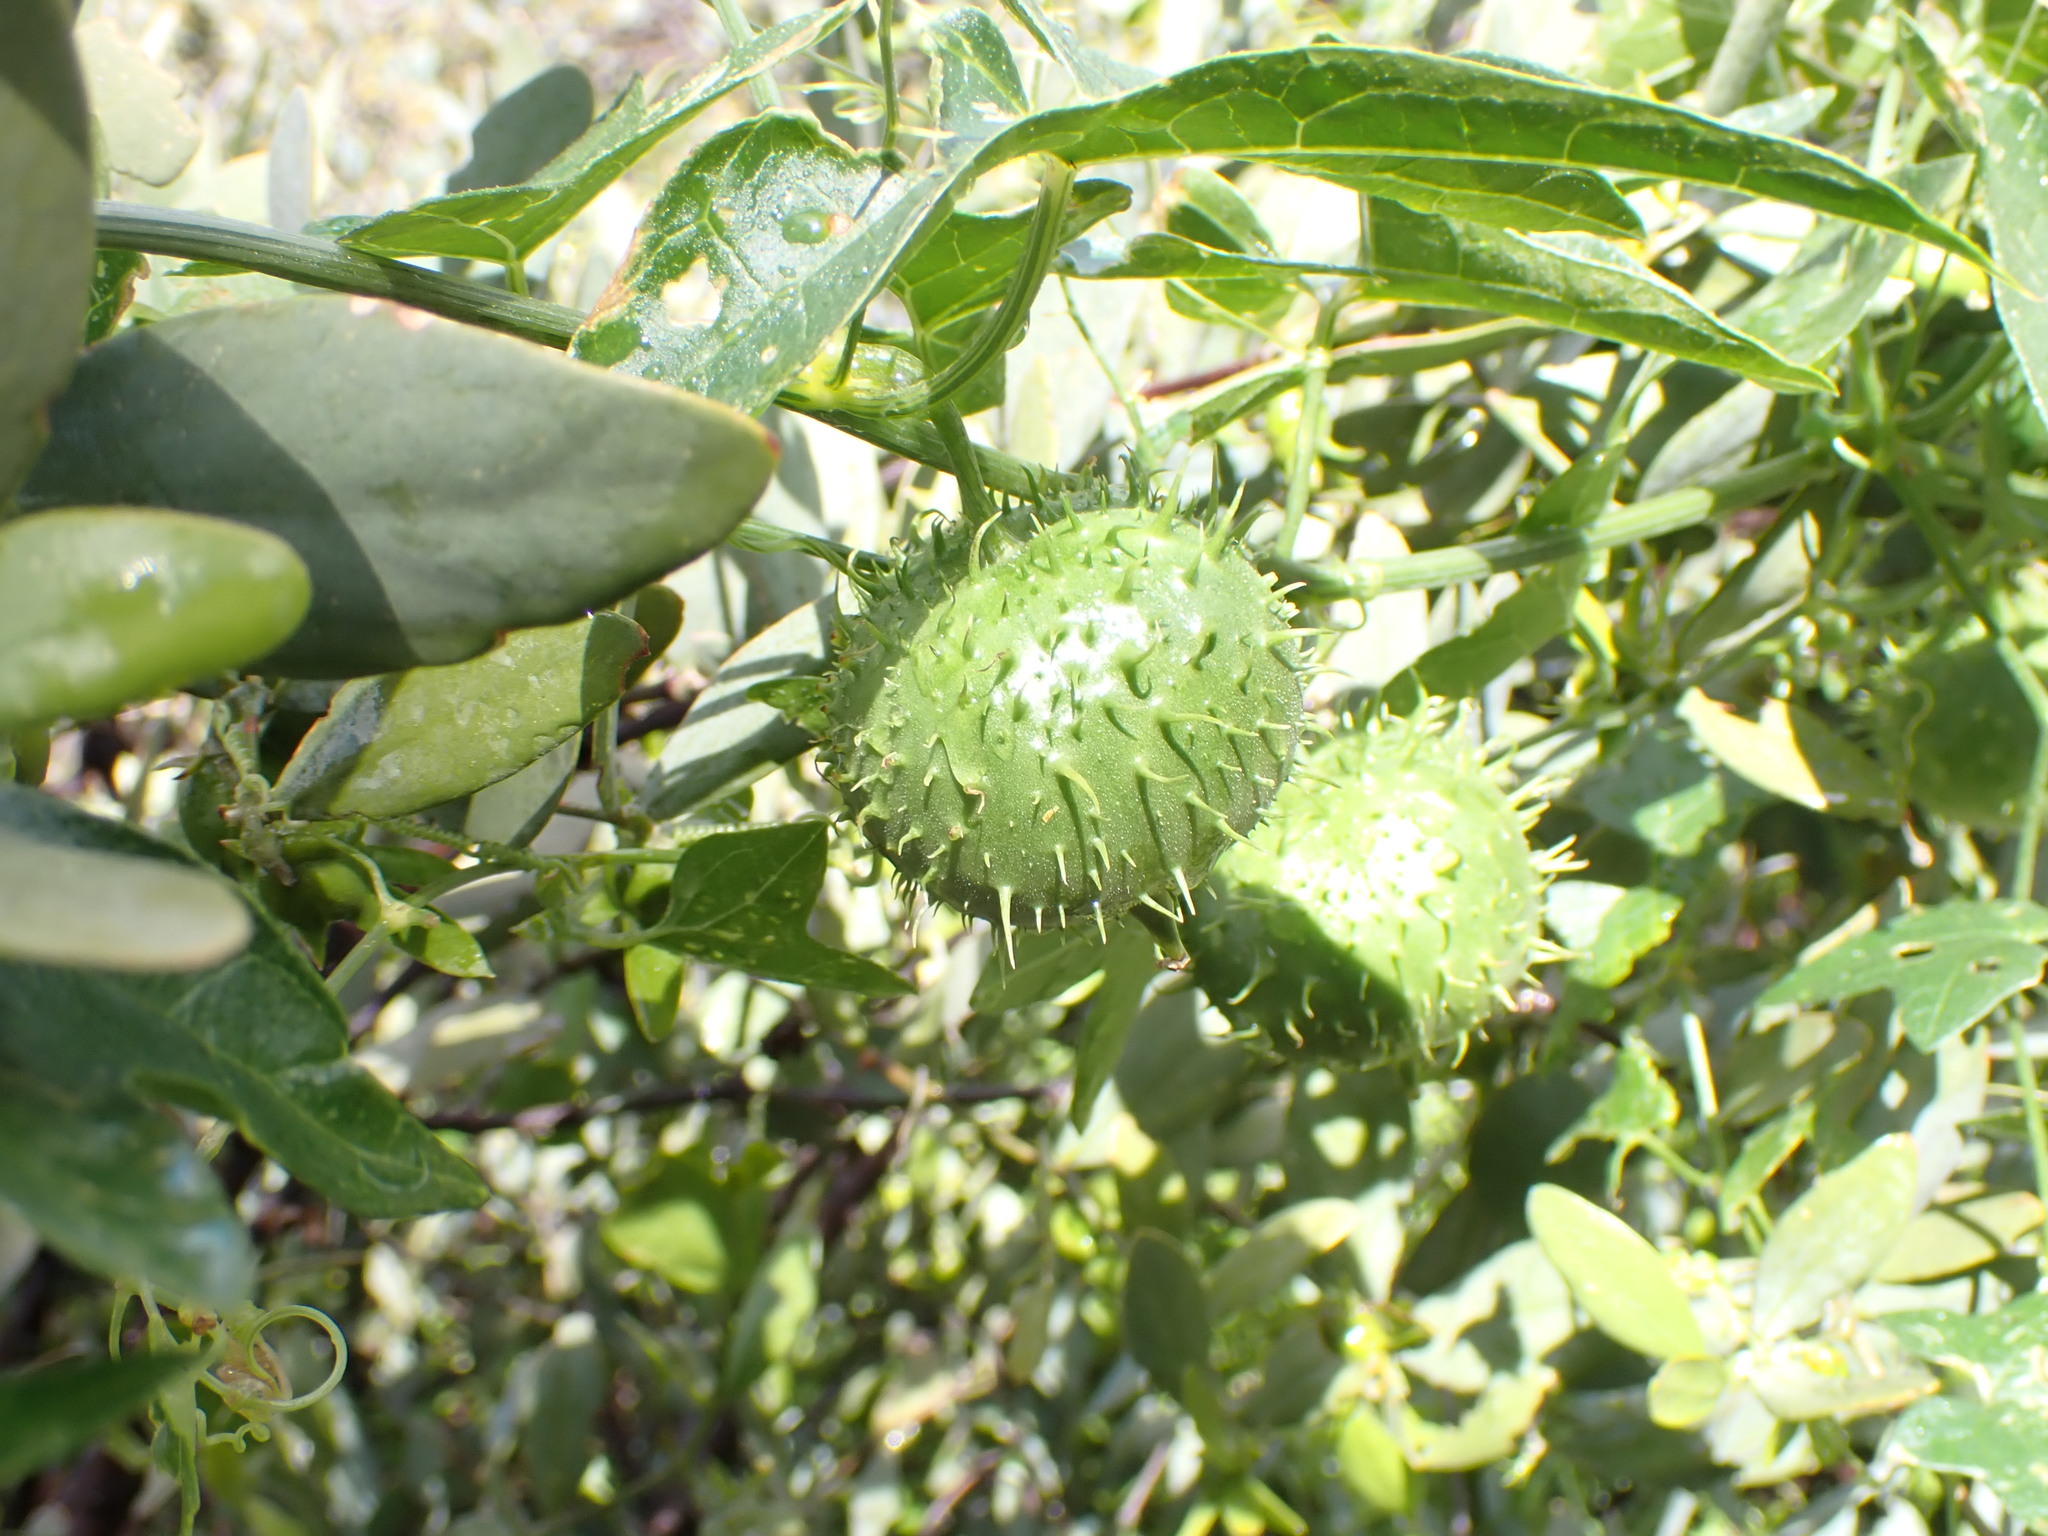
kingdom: Plantae
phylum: Tracheophyta
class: Magnoliopsida
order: Cucurbitales
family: Cucurbitaceae
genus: Marah
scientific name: Marah gilensis
